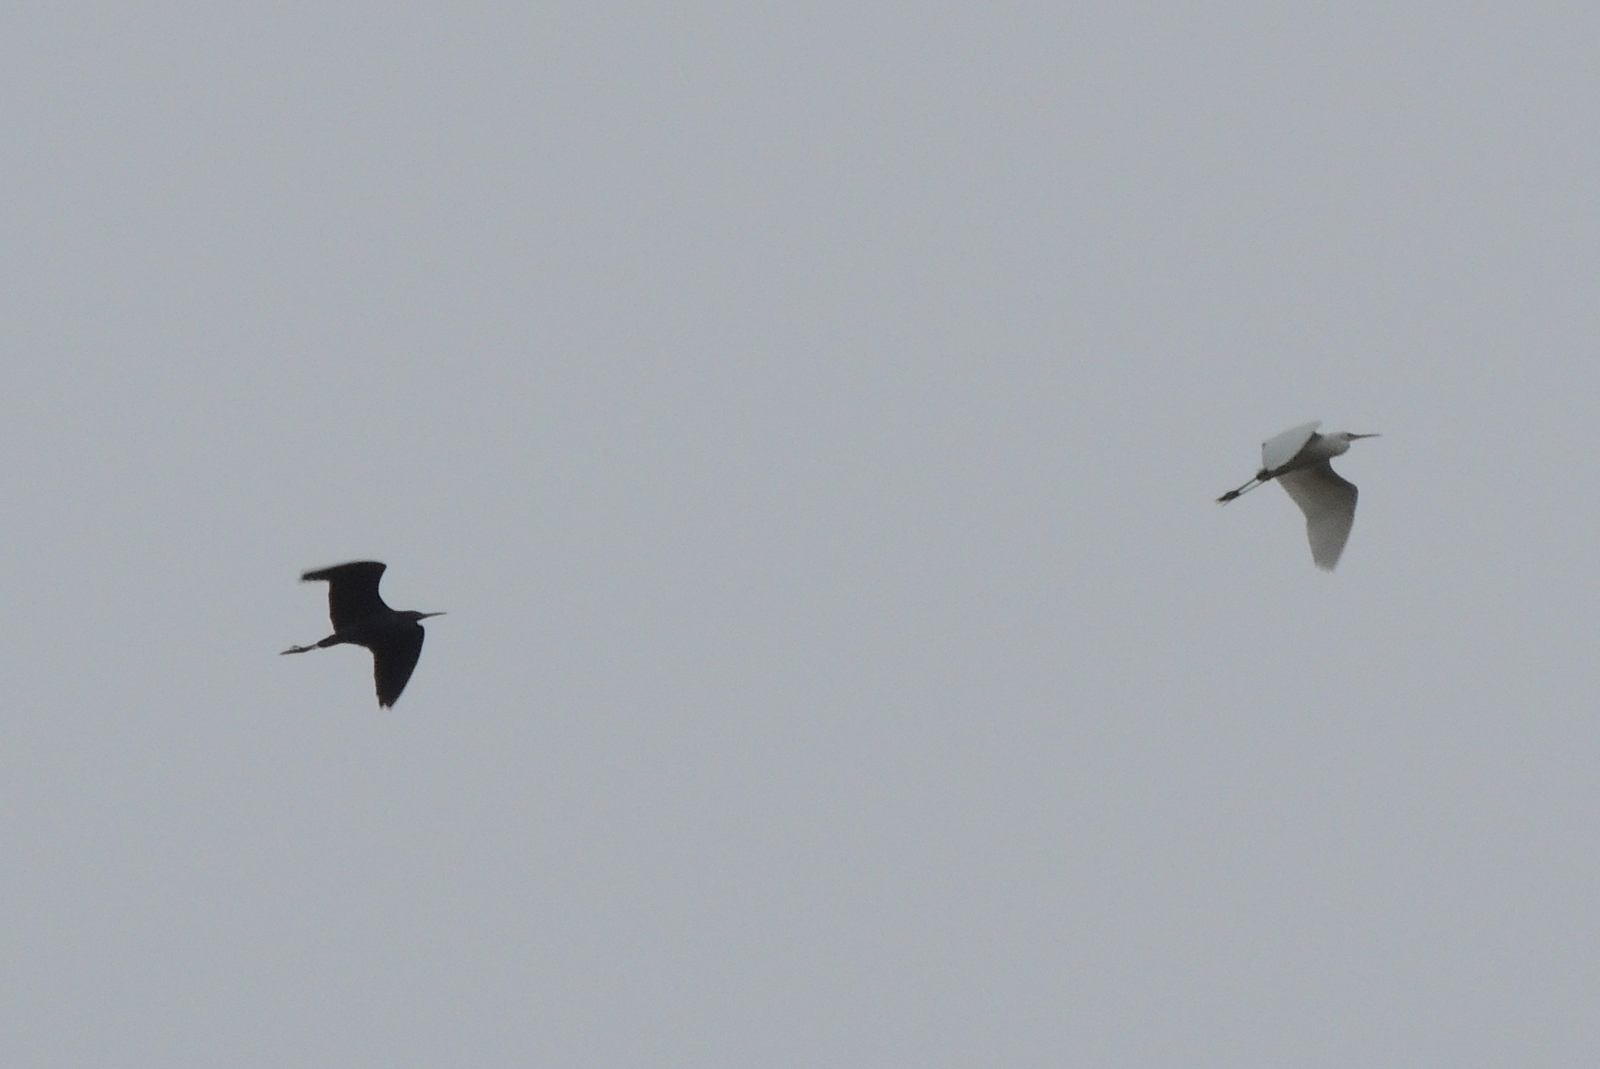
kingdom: Animalia
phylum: Chordata
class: Aves
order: Pelecaniformes
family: Ardeidae
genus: Egretta
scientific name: Egretta caerulea
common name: Little blue heron
